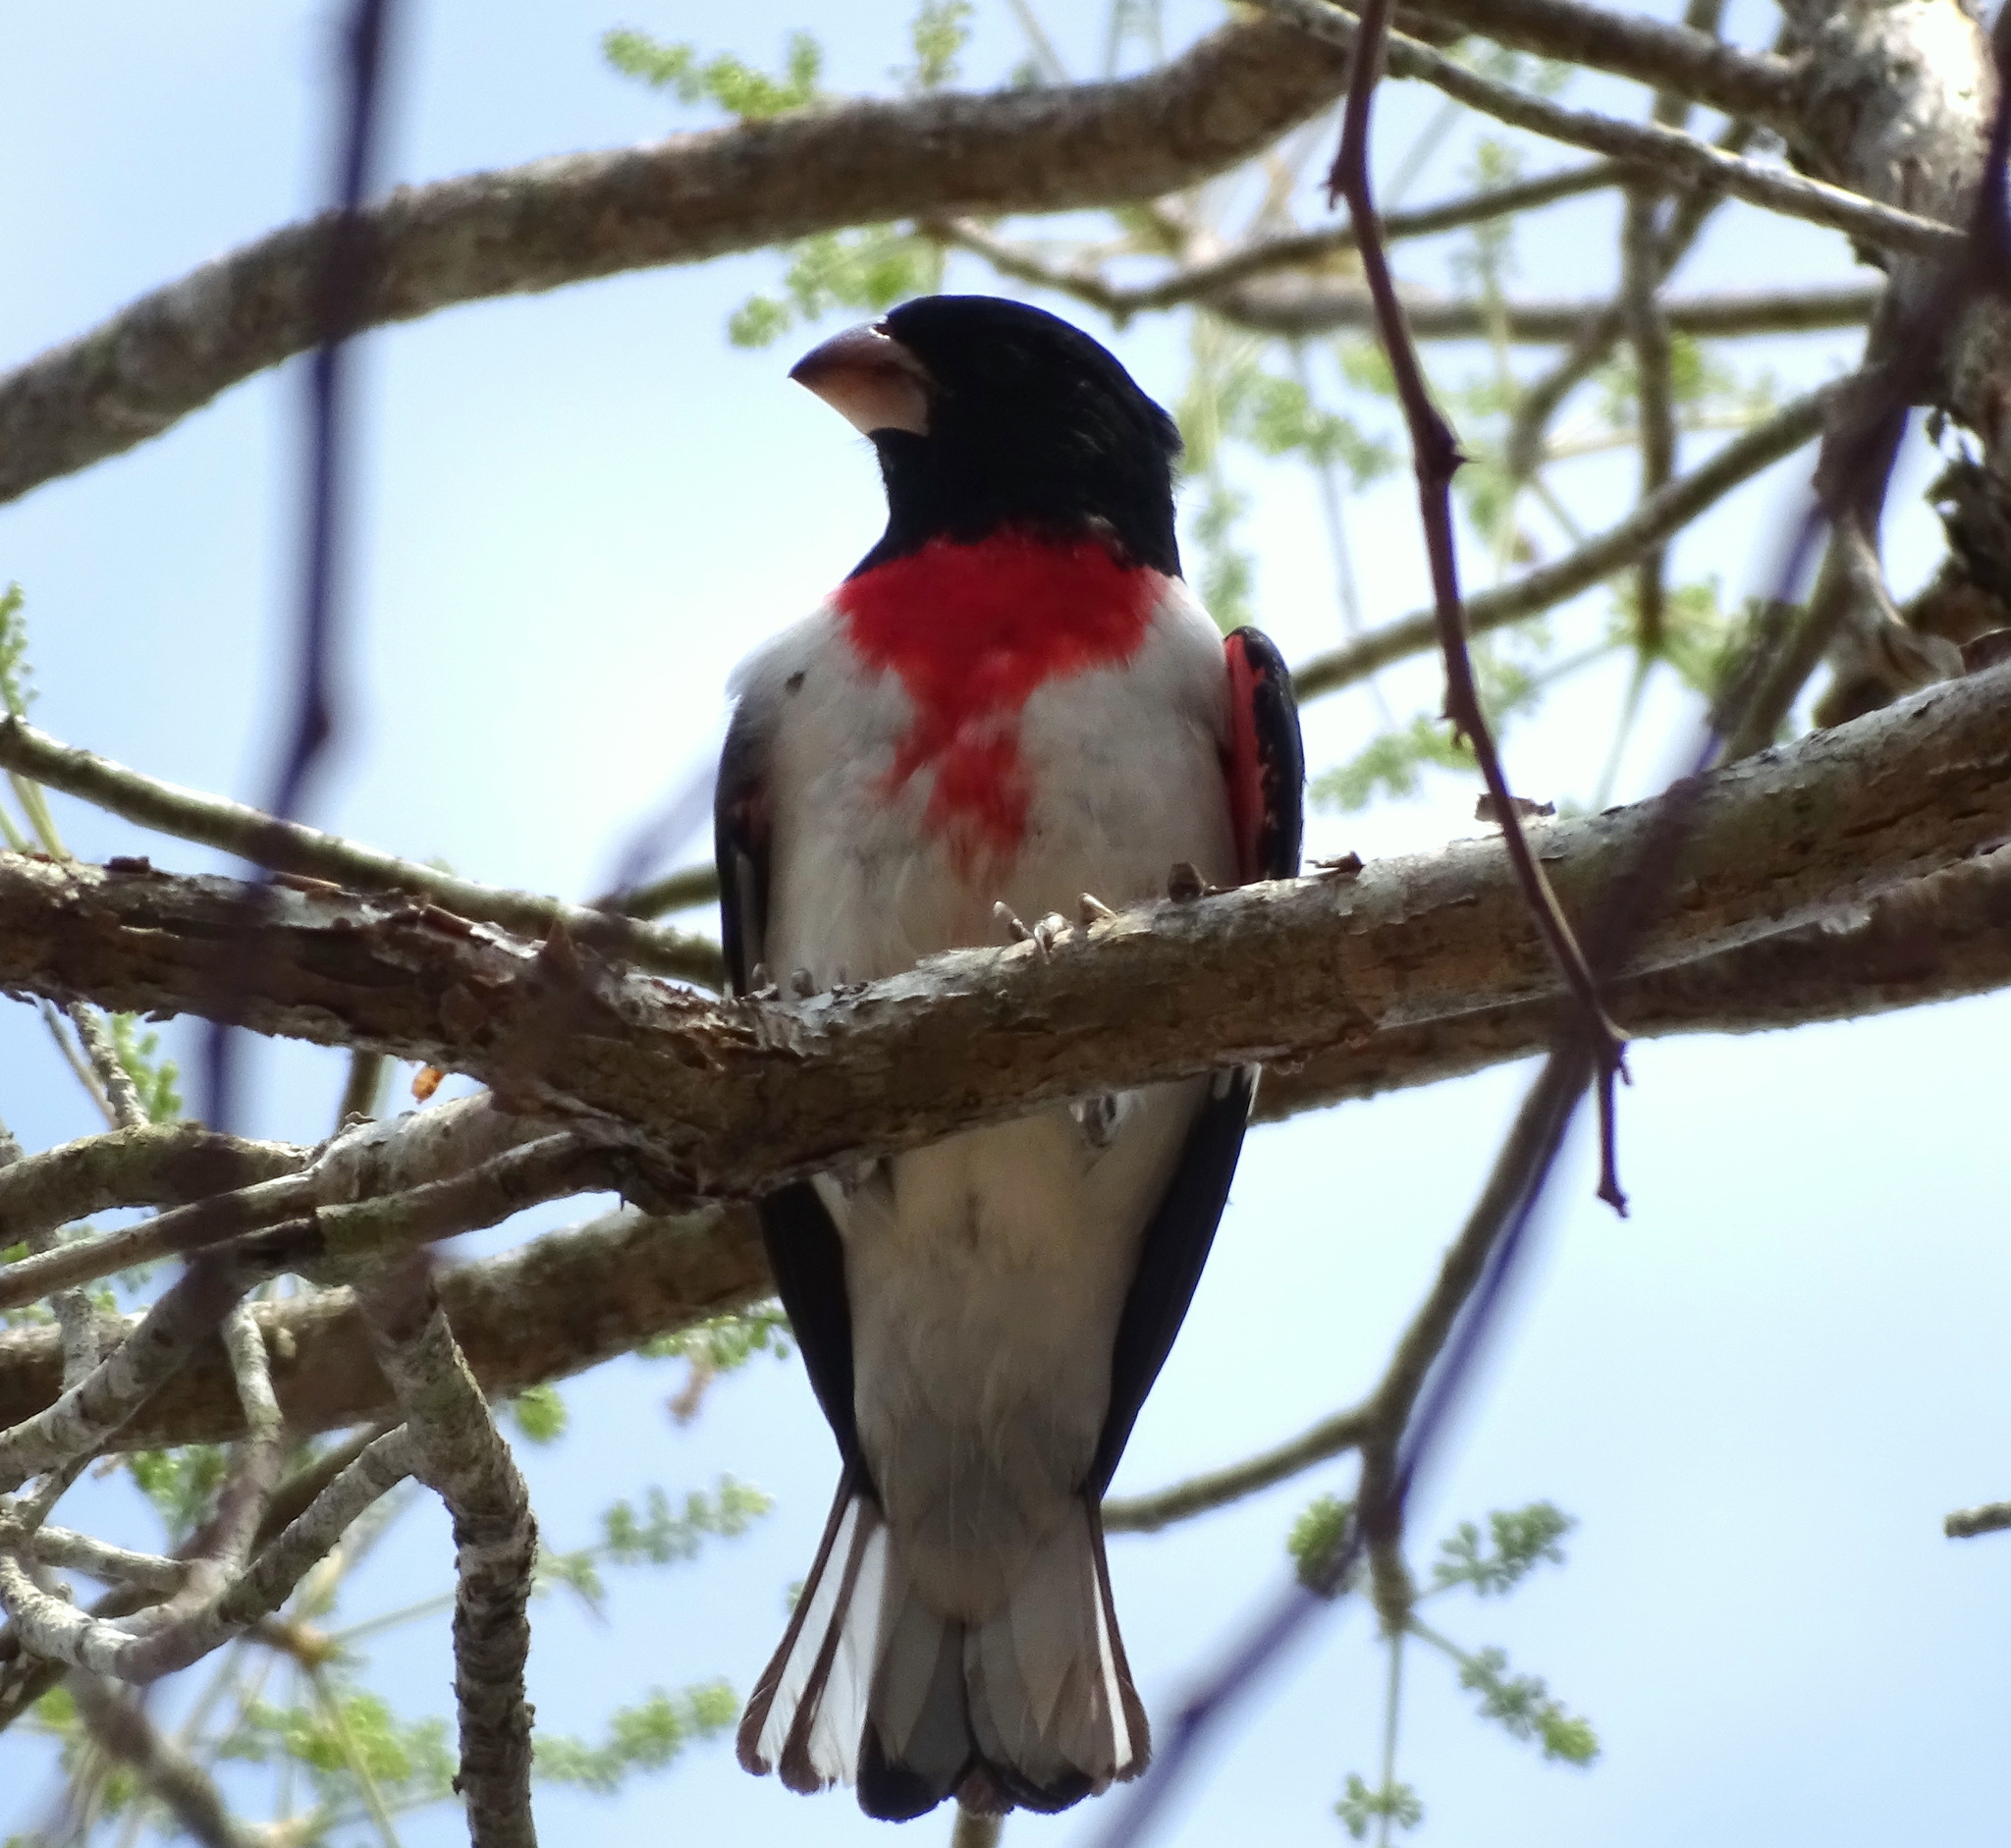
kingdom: Animalia
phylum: Chordata
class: Aves
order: Passeriformes
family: Cardinalidae
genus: Pheucticus
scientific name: Pheucticus ludovicianus
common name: Rose-breasted grosbeak
